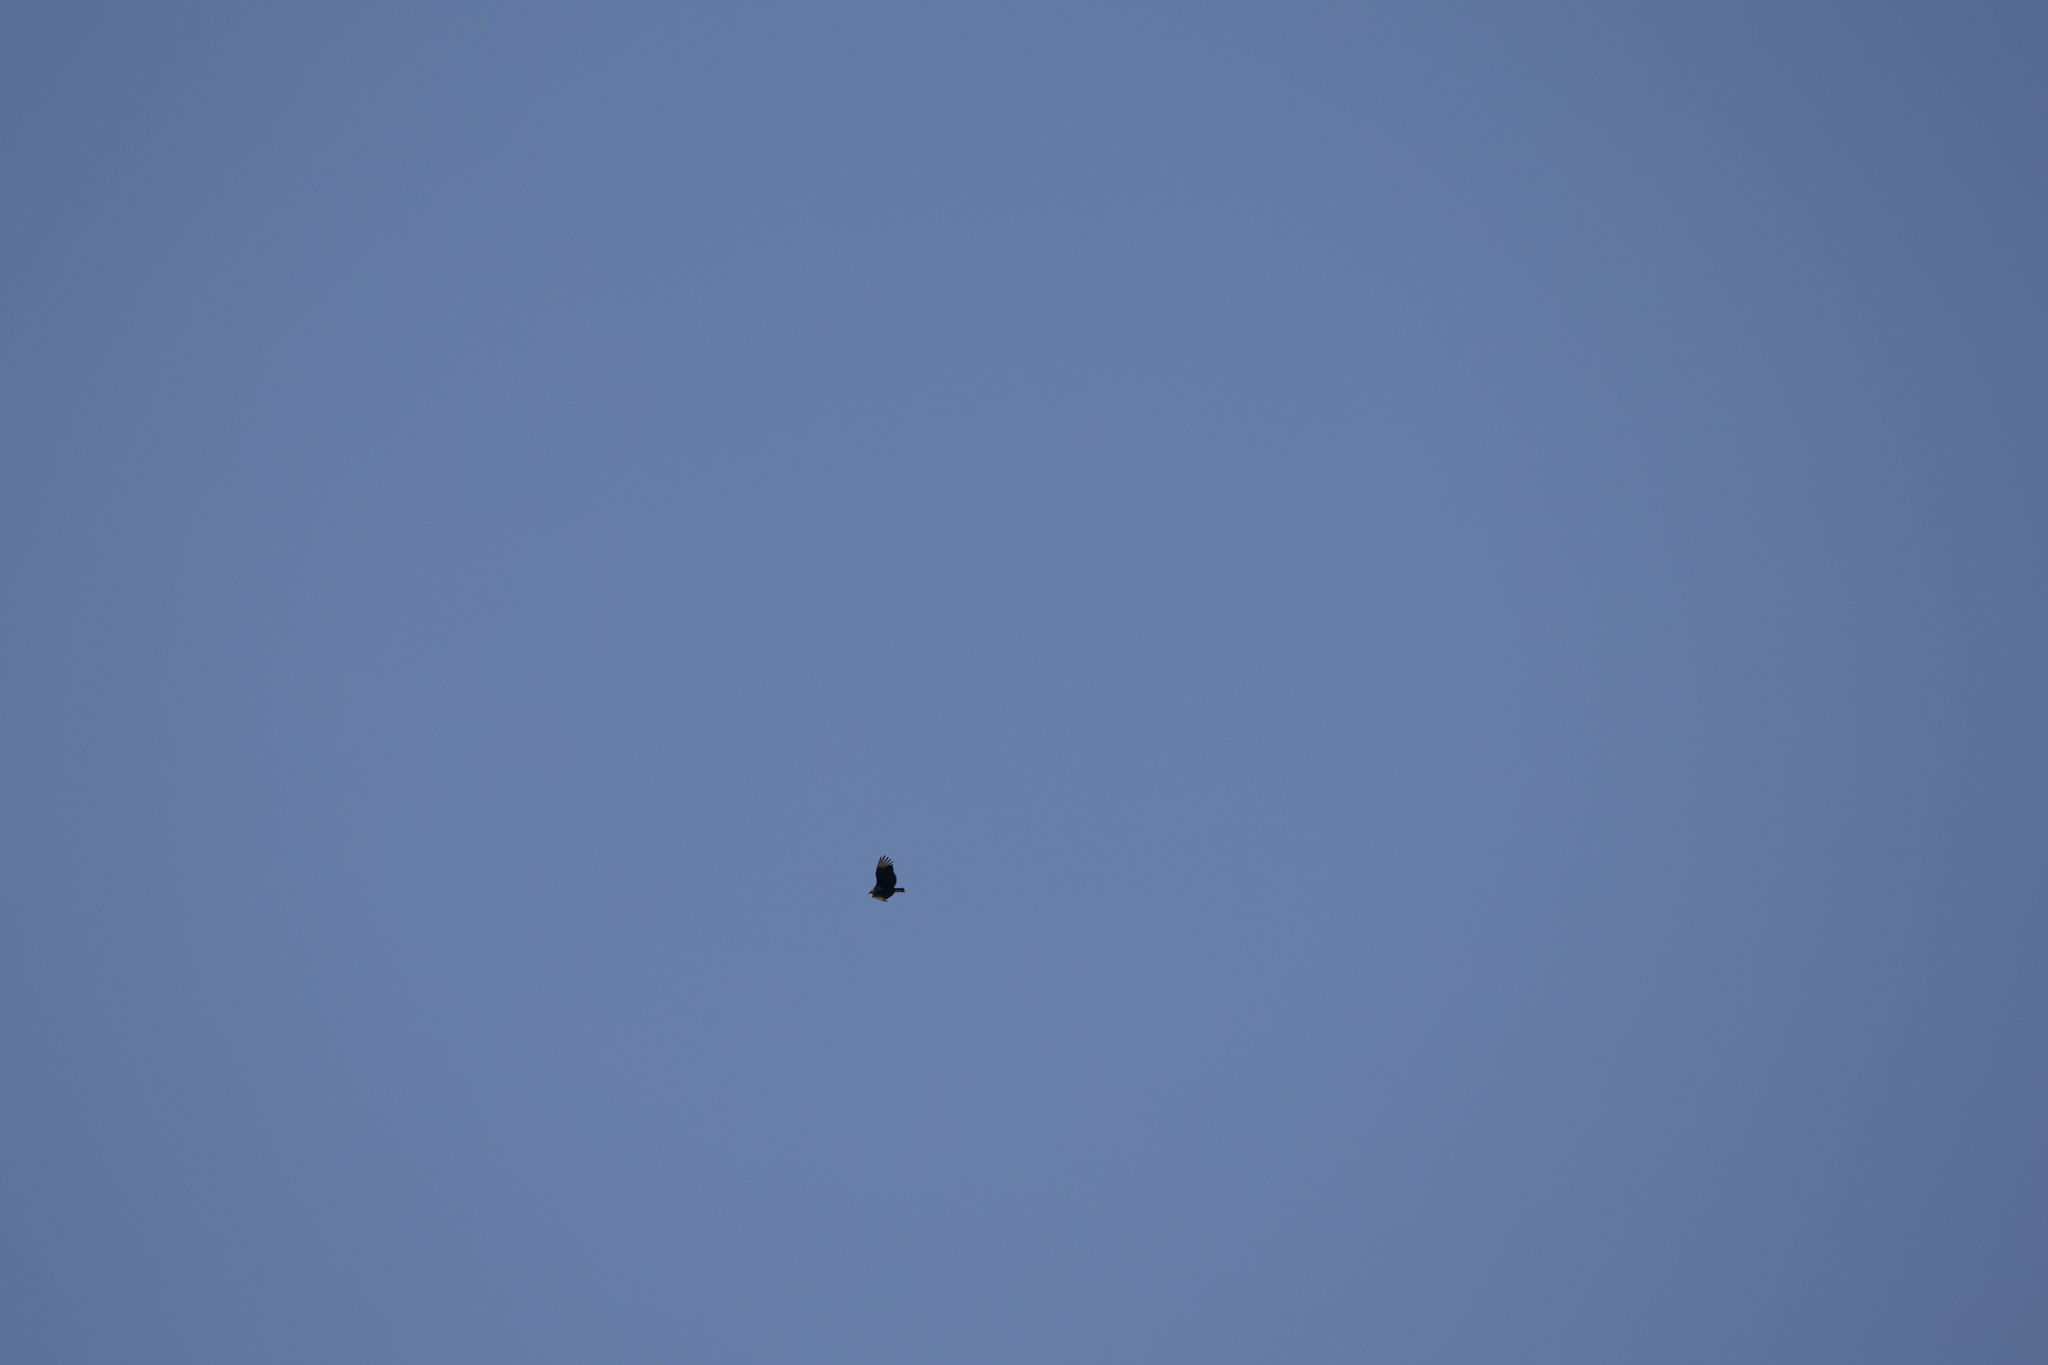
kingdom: Animalia
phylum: Chordata
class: Aves
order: Accipitriformes
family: Cathartidae
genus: Coragyps
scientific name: Coragyps atratus
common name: Black vulture
